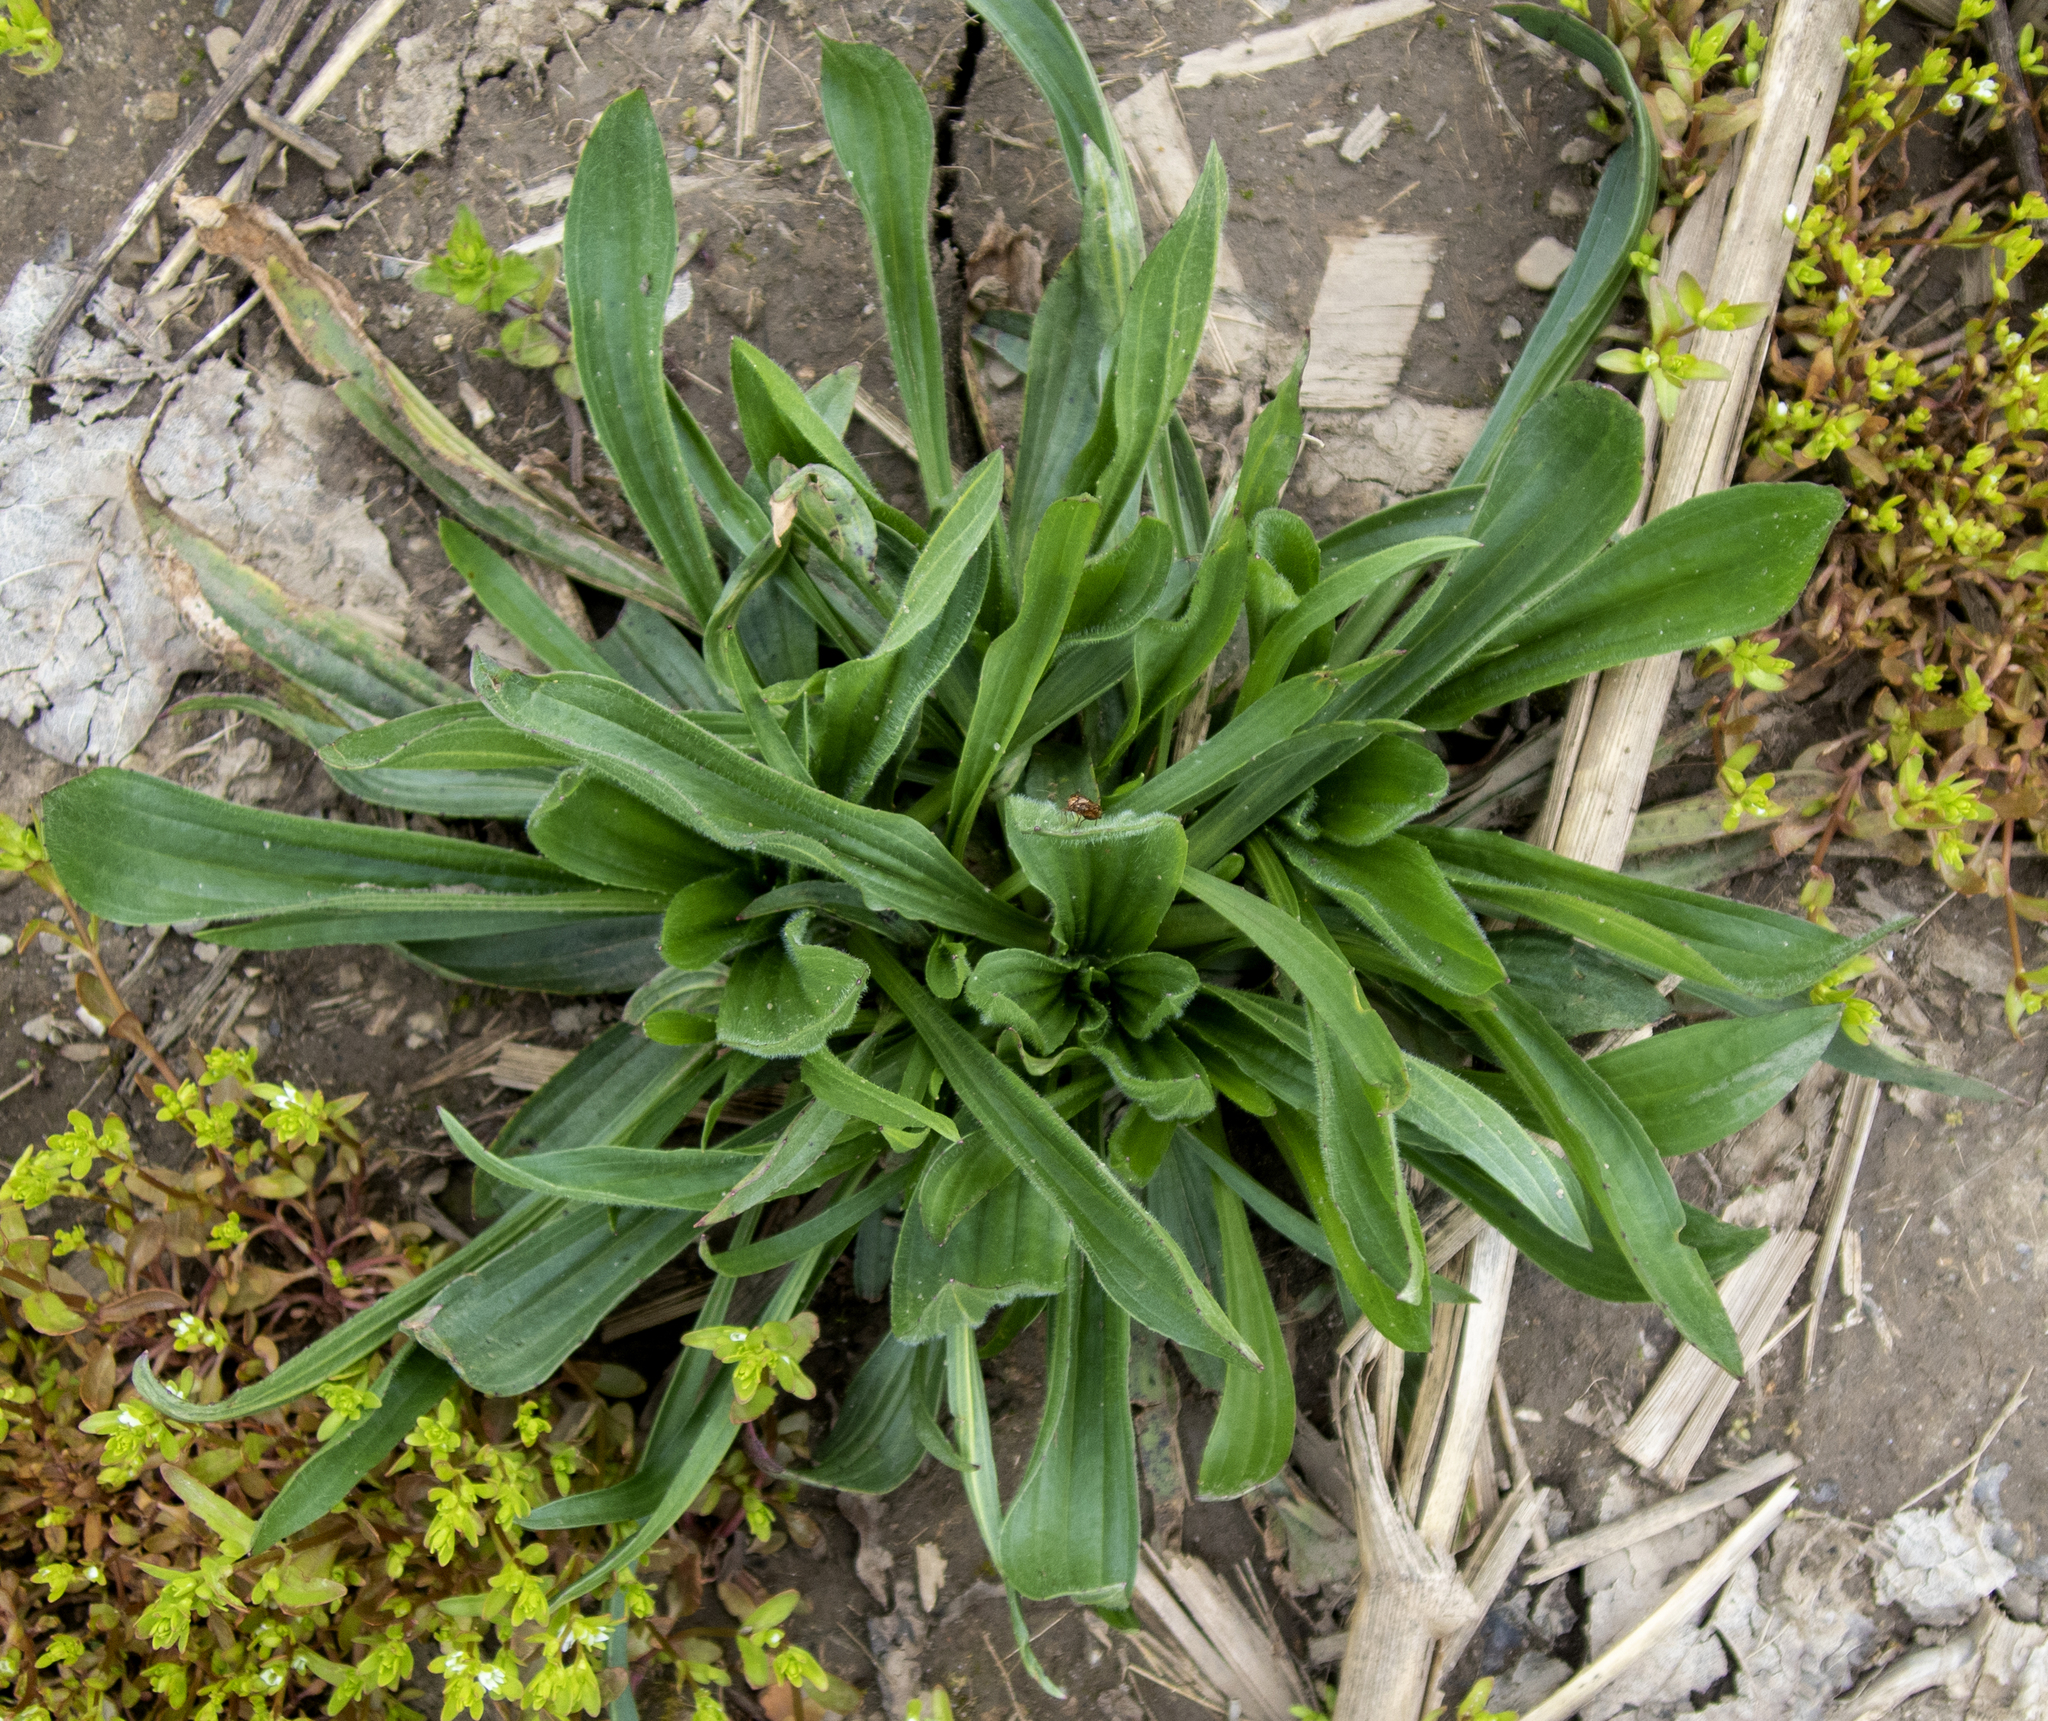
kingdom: Plantae
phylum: Tracheophyta
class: Magnoliopsida
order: Lamiales
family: Plantaginaceae
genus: Plantago
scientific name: Plantago lanceolata
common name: Ribwort plantain
